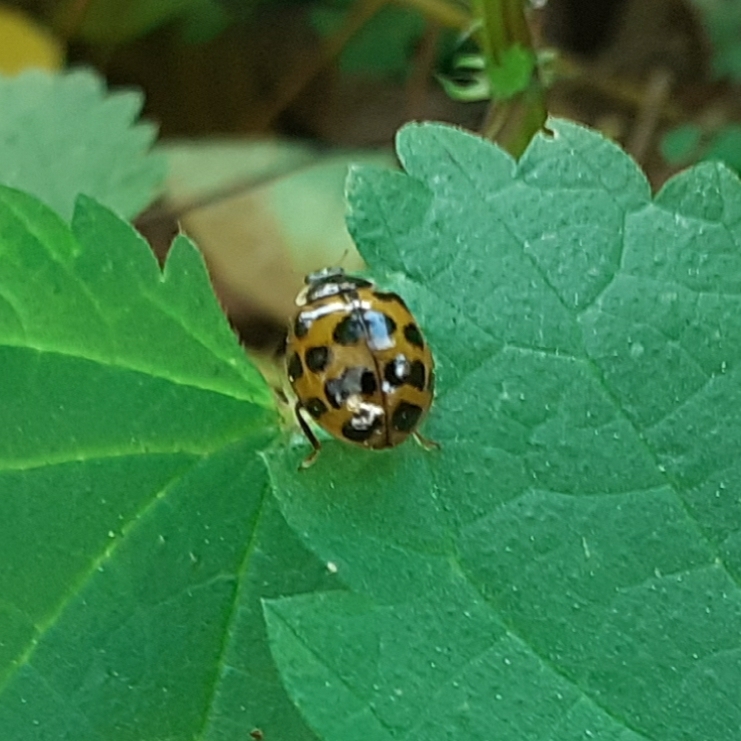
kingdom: Animalia
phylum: Arthropoda
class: Insecta
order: Coleoptera
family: Coccinellidae
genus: Harmonia
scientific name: Harmonia axyridis
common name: Harlequin ladybird
